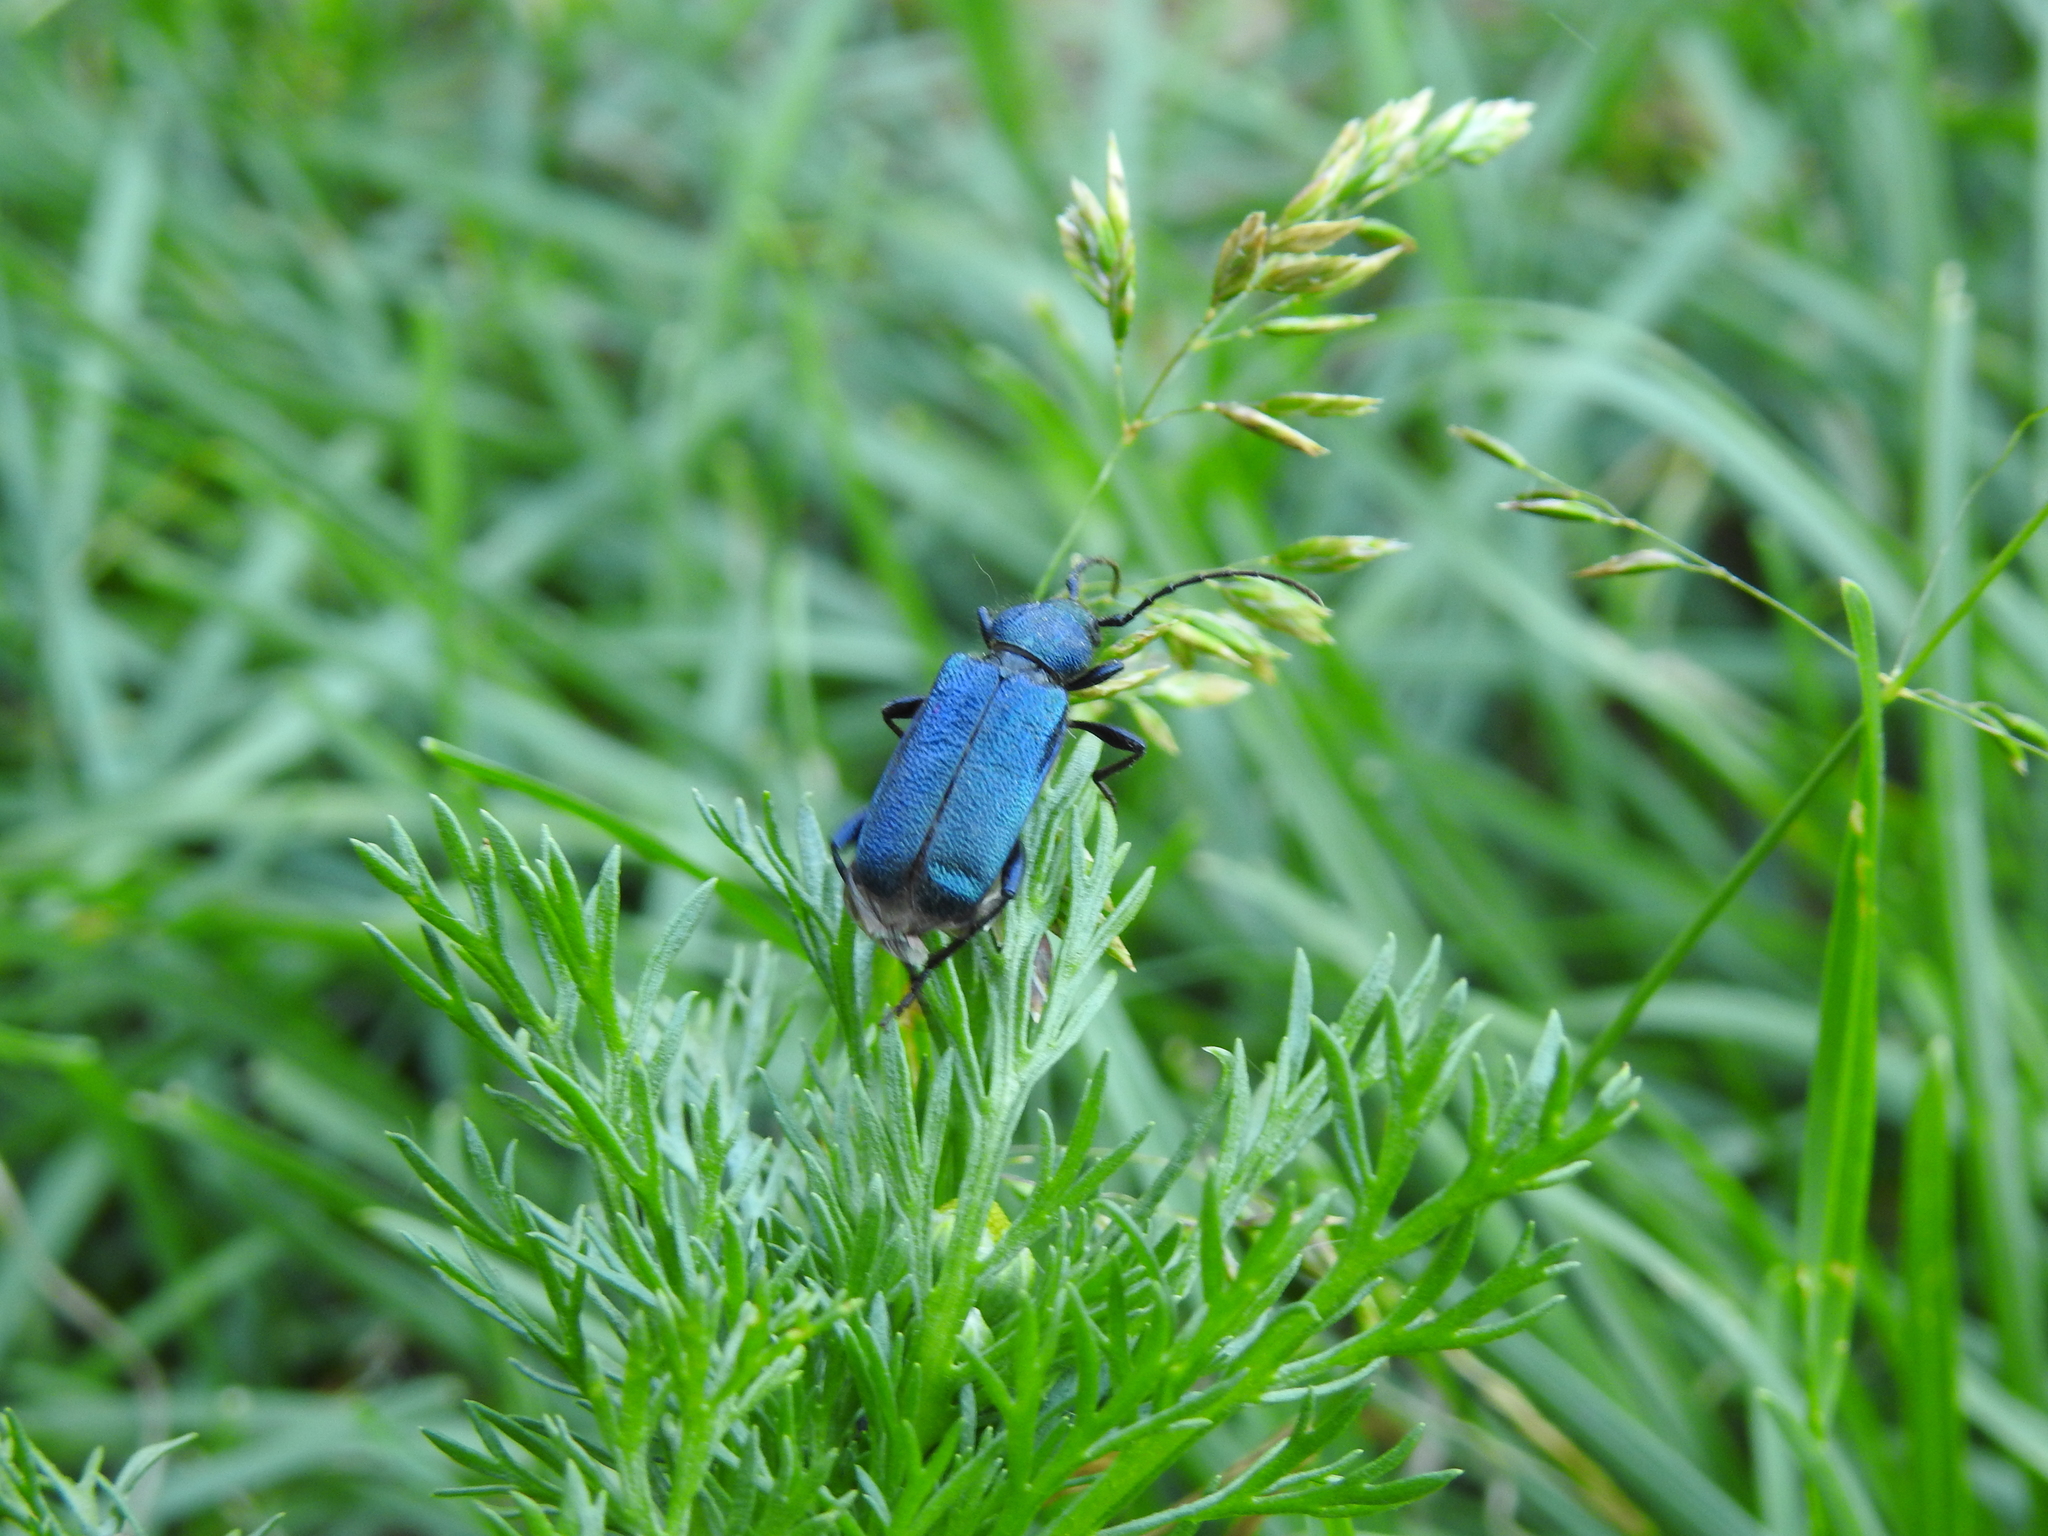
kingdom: Animalia
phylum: Arthropoda
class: Insecta
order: Coleoptera
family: Cerambycidae
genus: Callidium
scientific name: Callidium violaceum
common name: Violet tanbark beetle
